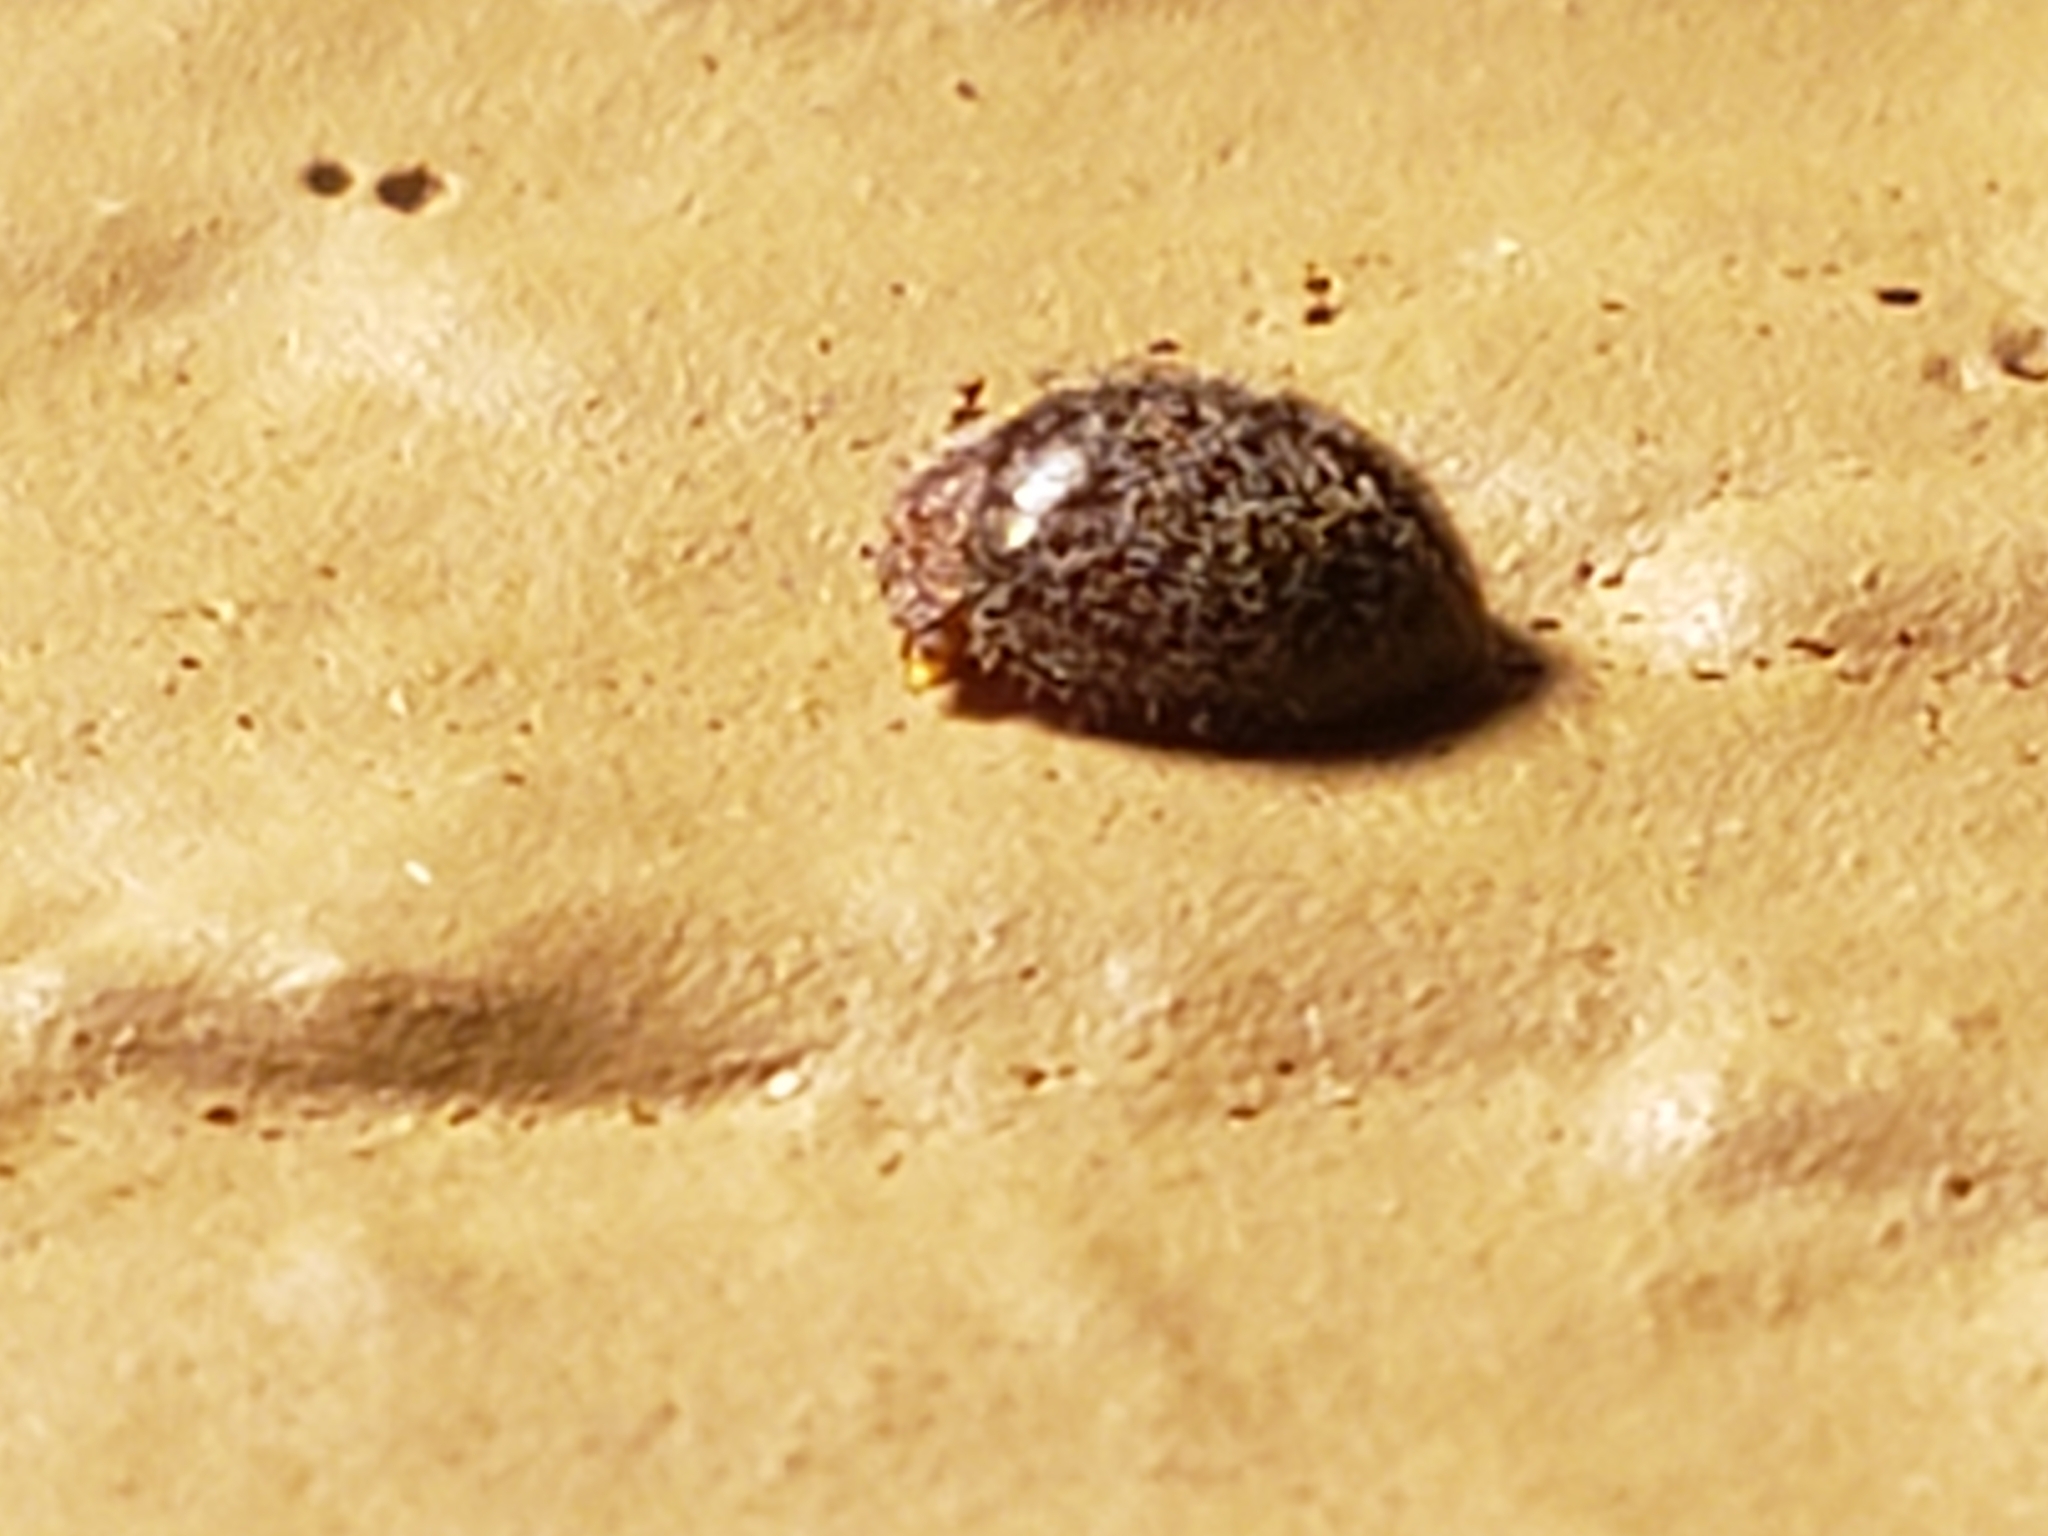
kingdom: Animalia
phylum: Arthropoda
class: Insecta
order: Coleoptera
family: Coccinellidae
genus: Rhyzobius
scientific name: Rhyzobius lophanthae
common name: Scale-eating ladybird beetle
